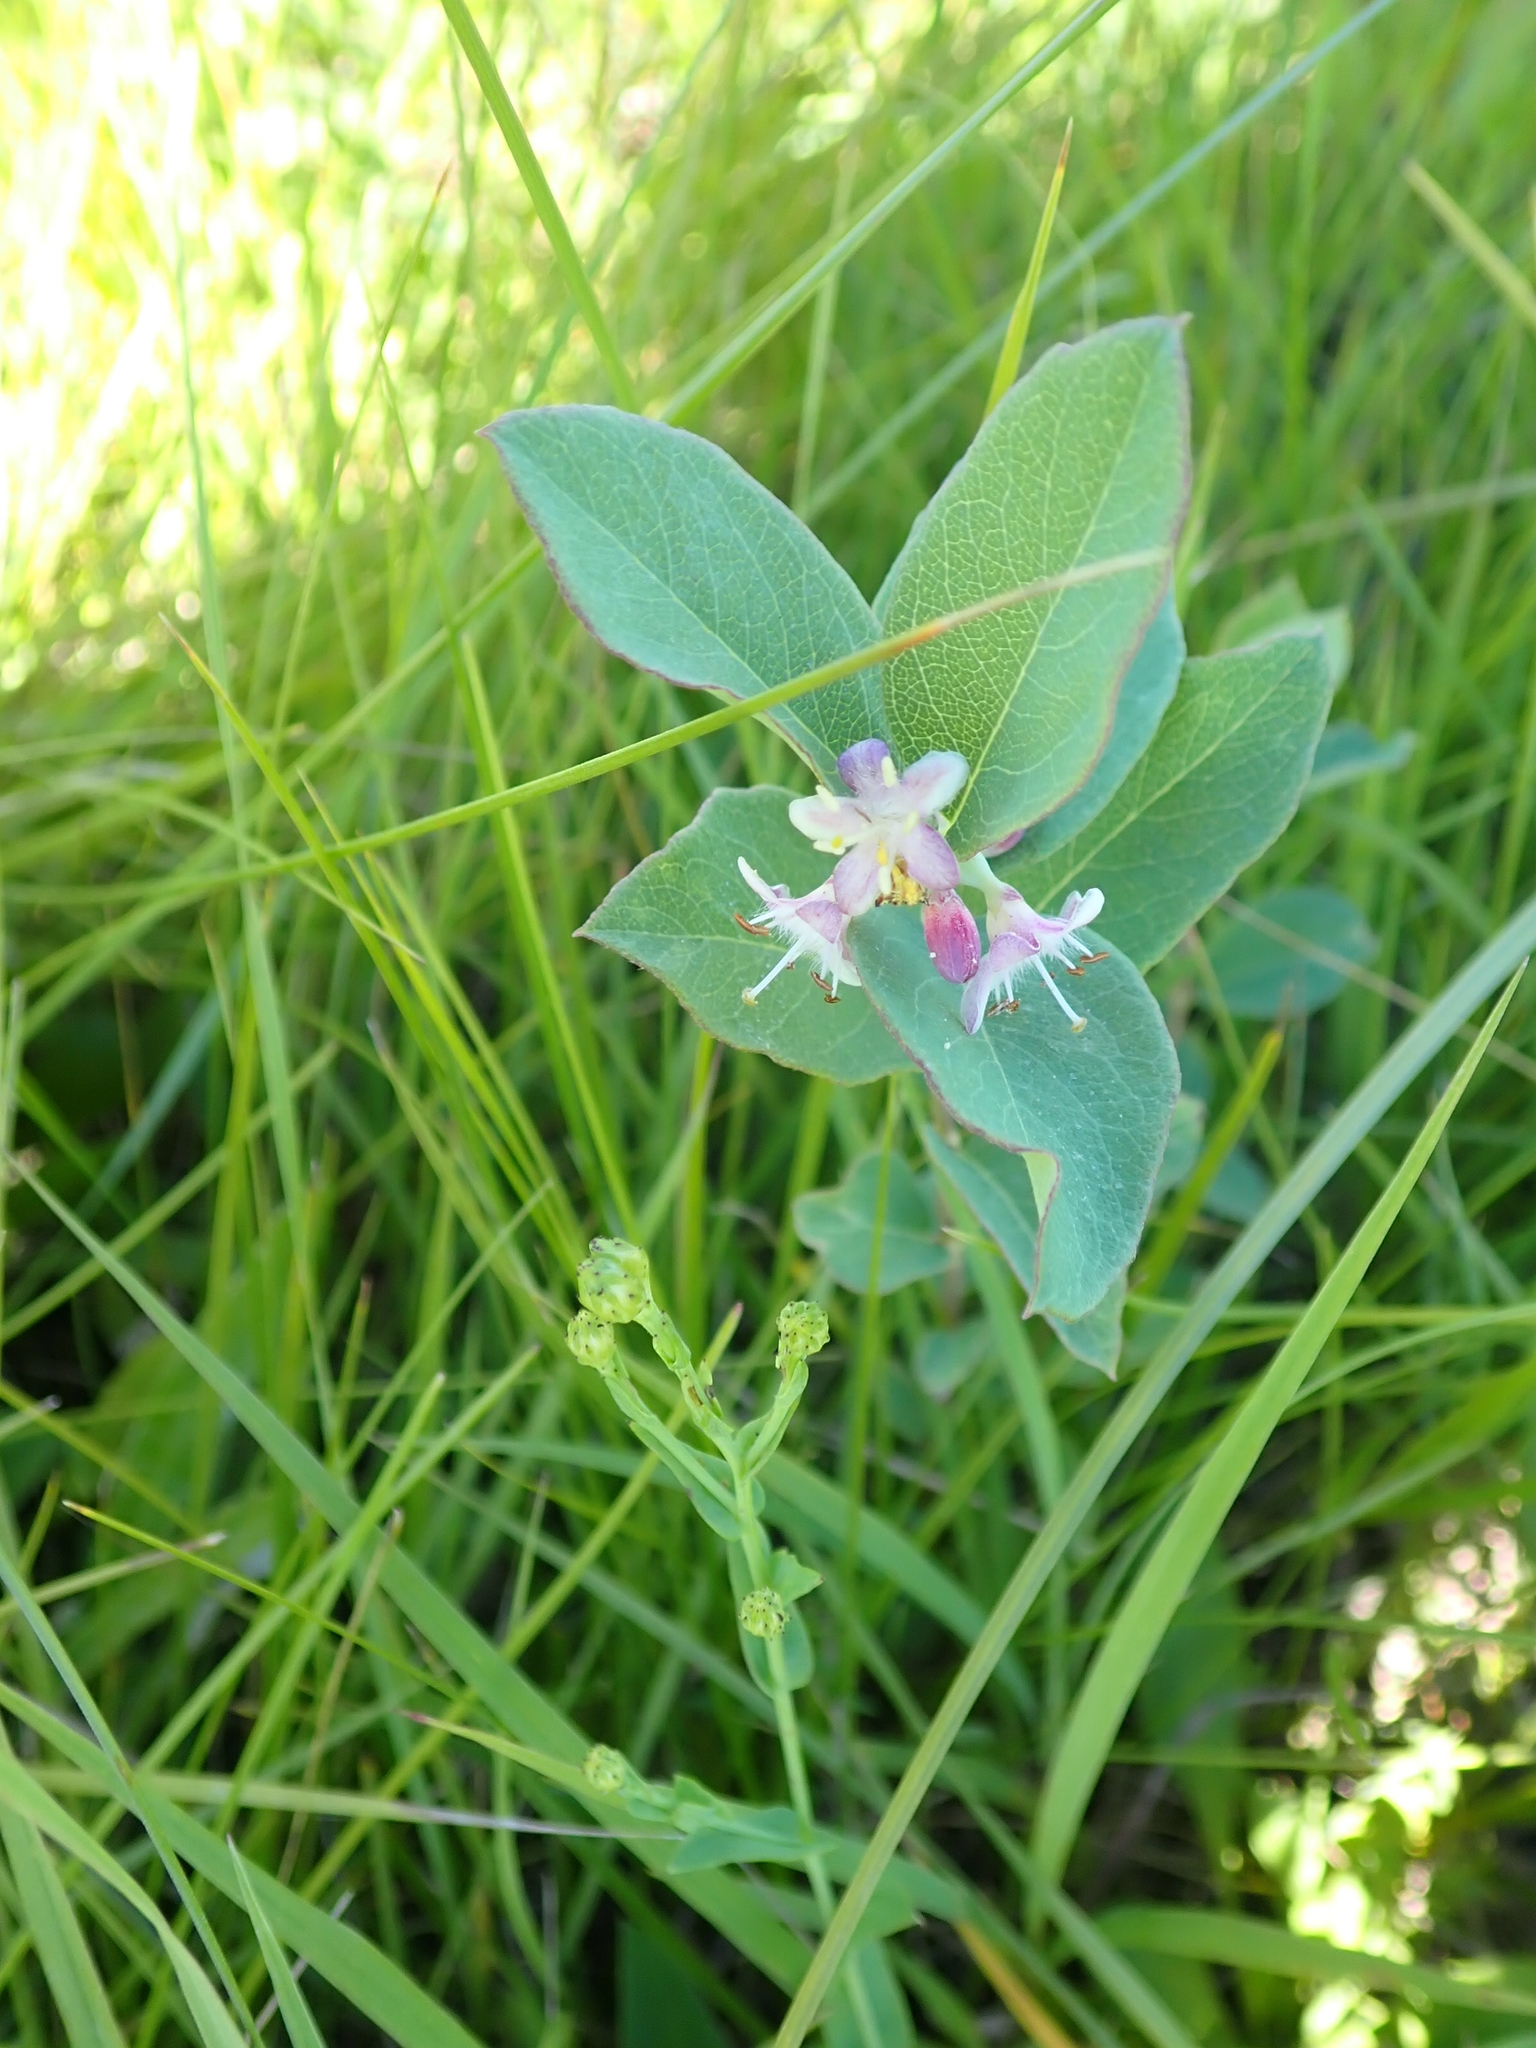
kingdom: Plantae
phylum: Tracheophyta
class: Magnoliopsida
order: Dipsacales
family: Caprifoliaceae
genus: Symphoricarpos
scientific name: Symphoricarpos occidentalis
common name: Wolfberry
